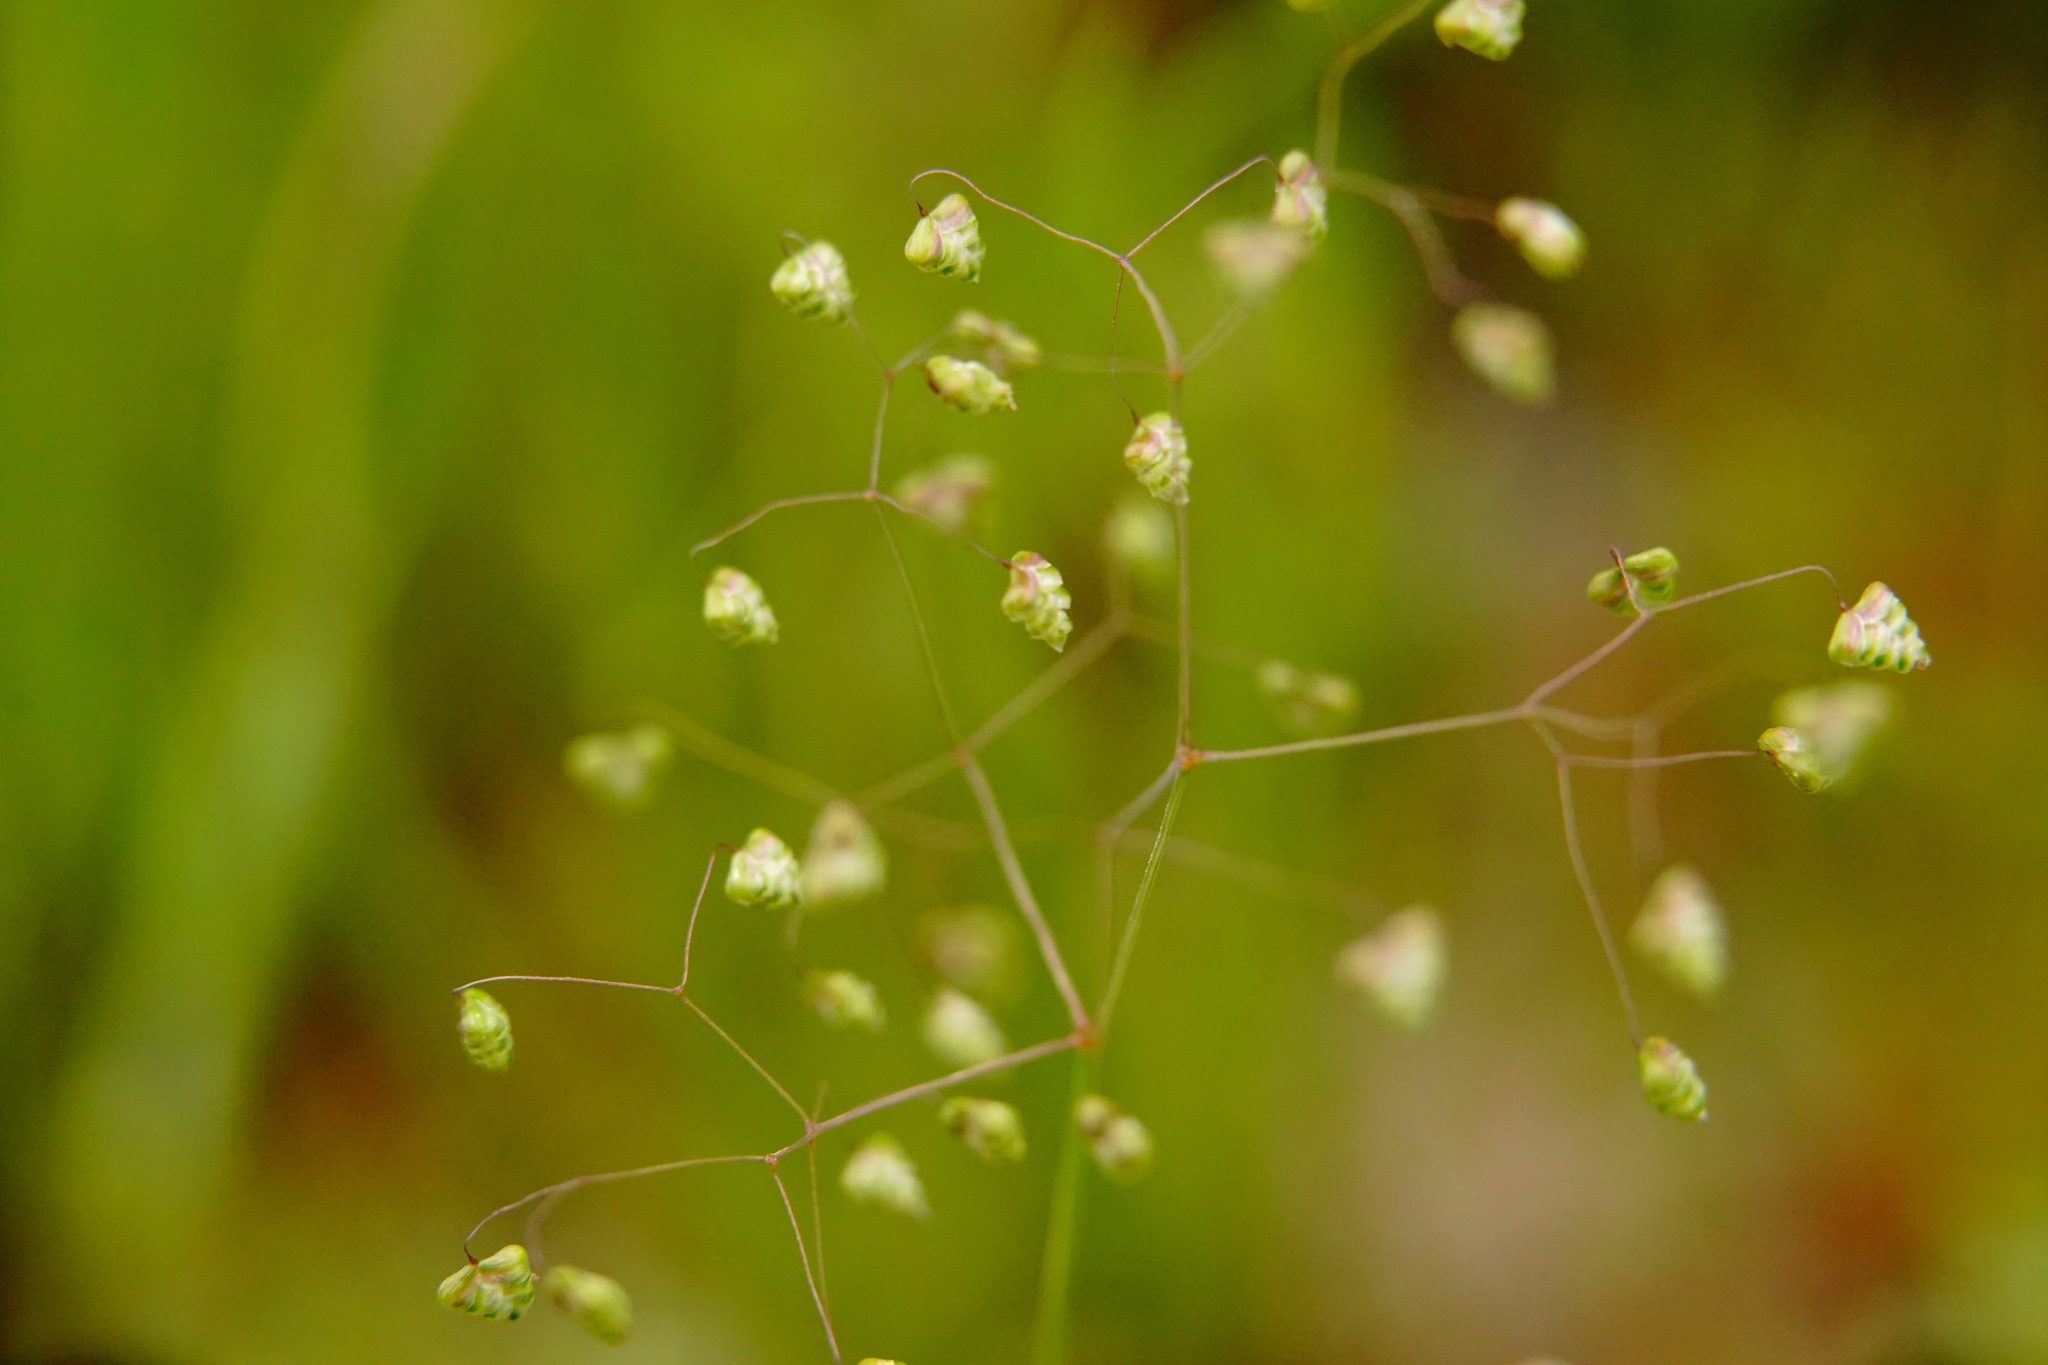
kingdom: Plantae
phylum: Tracheophyta
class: Liliopsida
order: Poales
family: Poaceae
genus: Briza
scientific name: Briza minor
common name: Lesser quaking-grass
